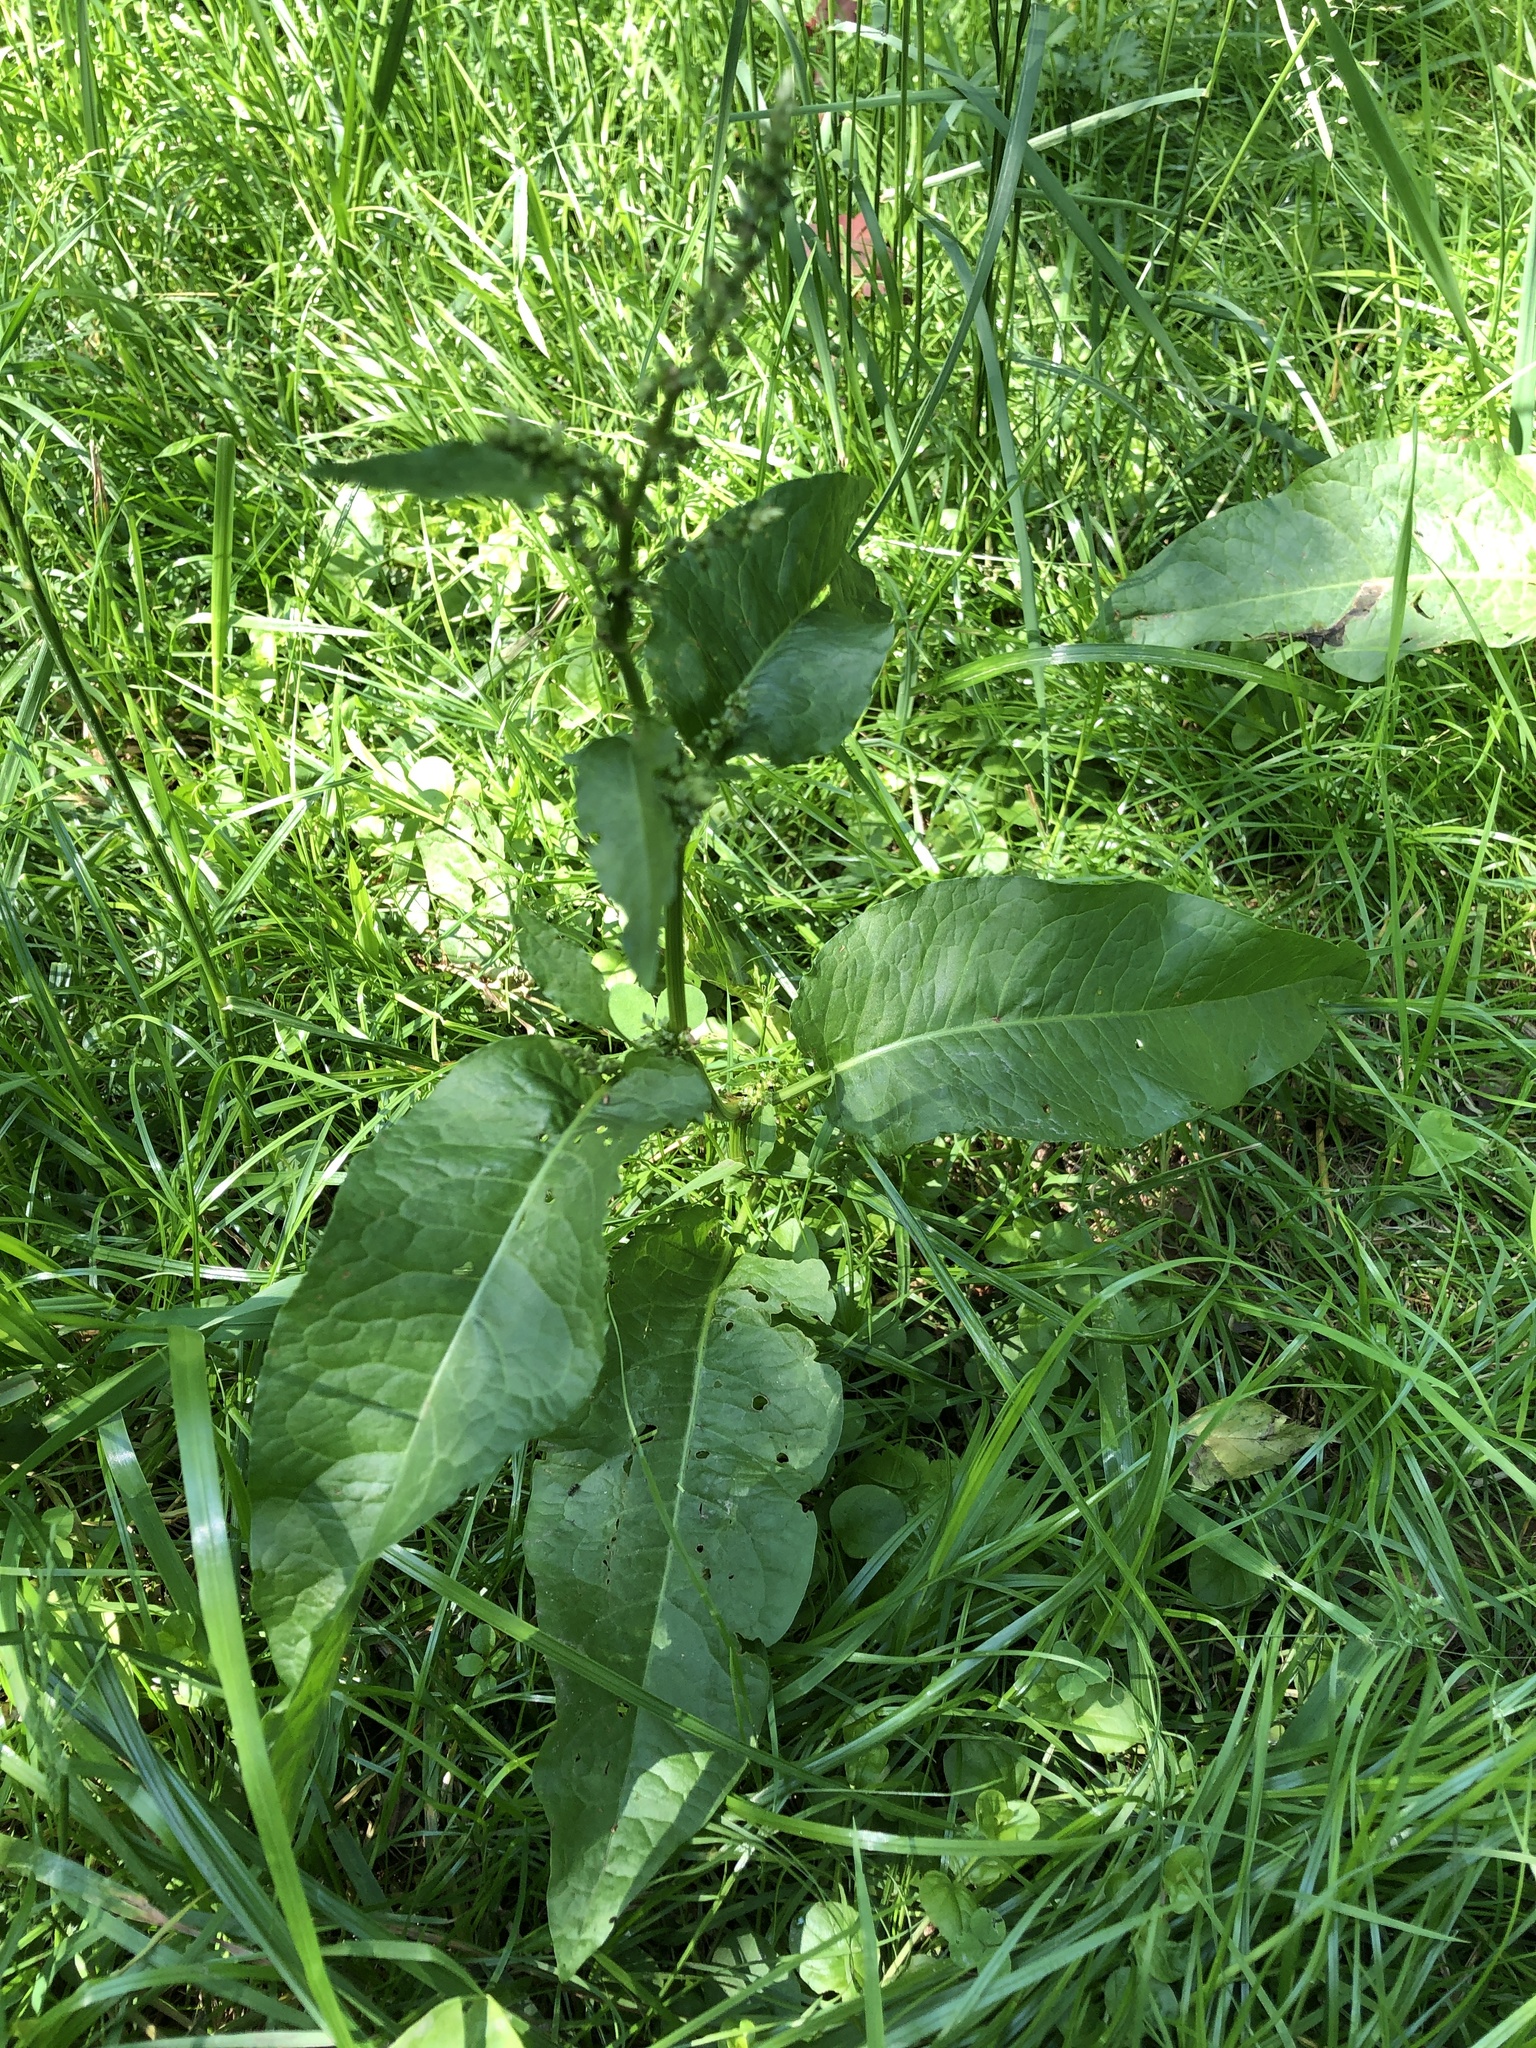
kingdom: Plantae
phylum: Tracheophyta
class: Magnoliopsida
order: Caryophyllales
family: Polygonaceae
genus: Rumex
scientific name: Rumex obtusifolius
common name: Bitter dock
